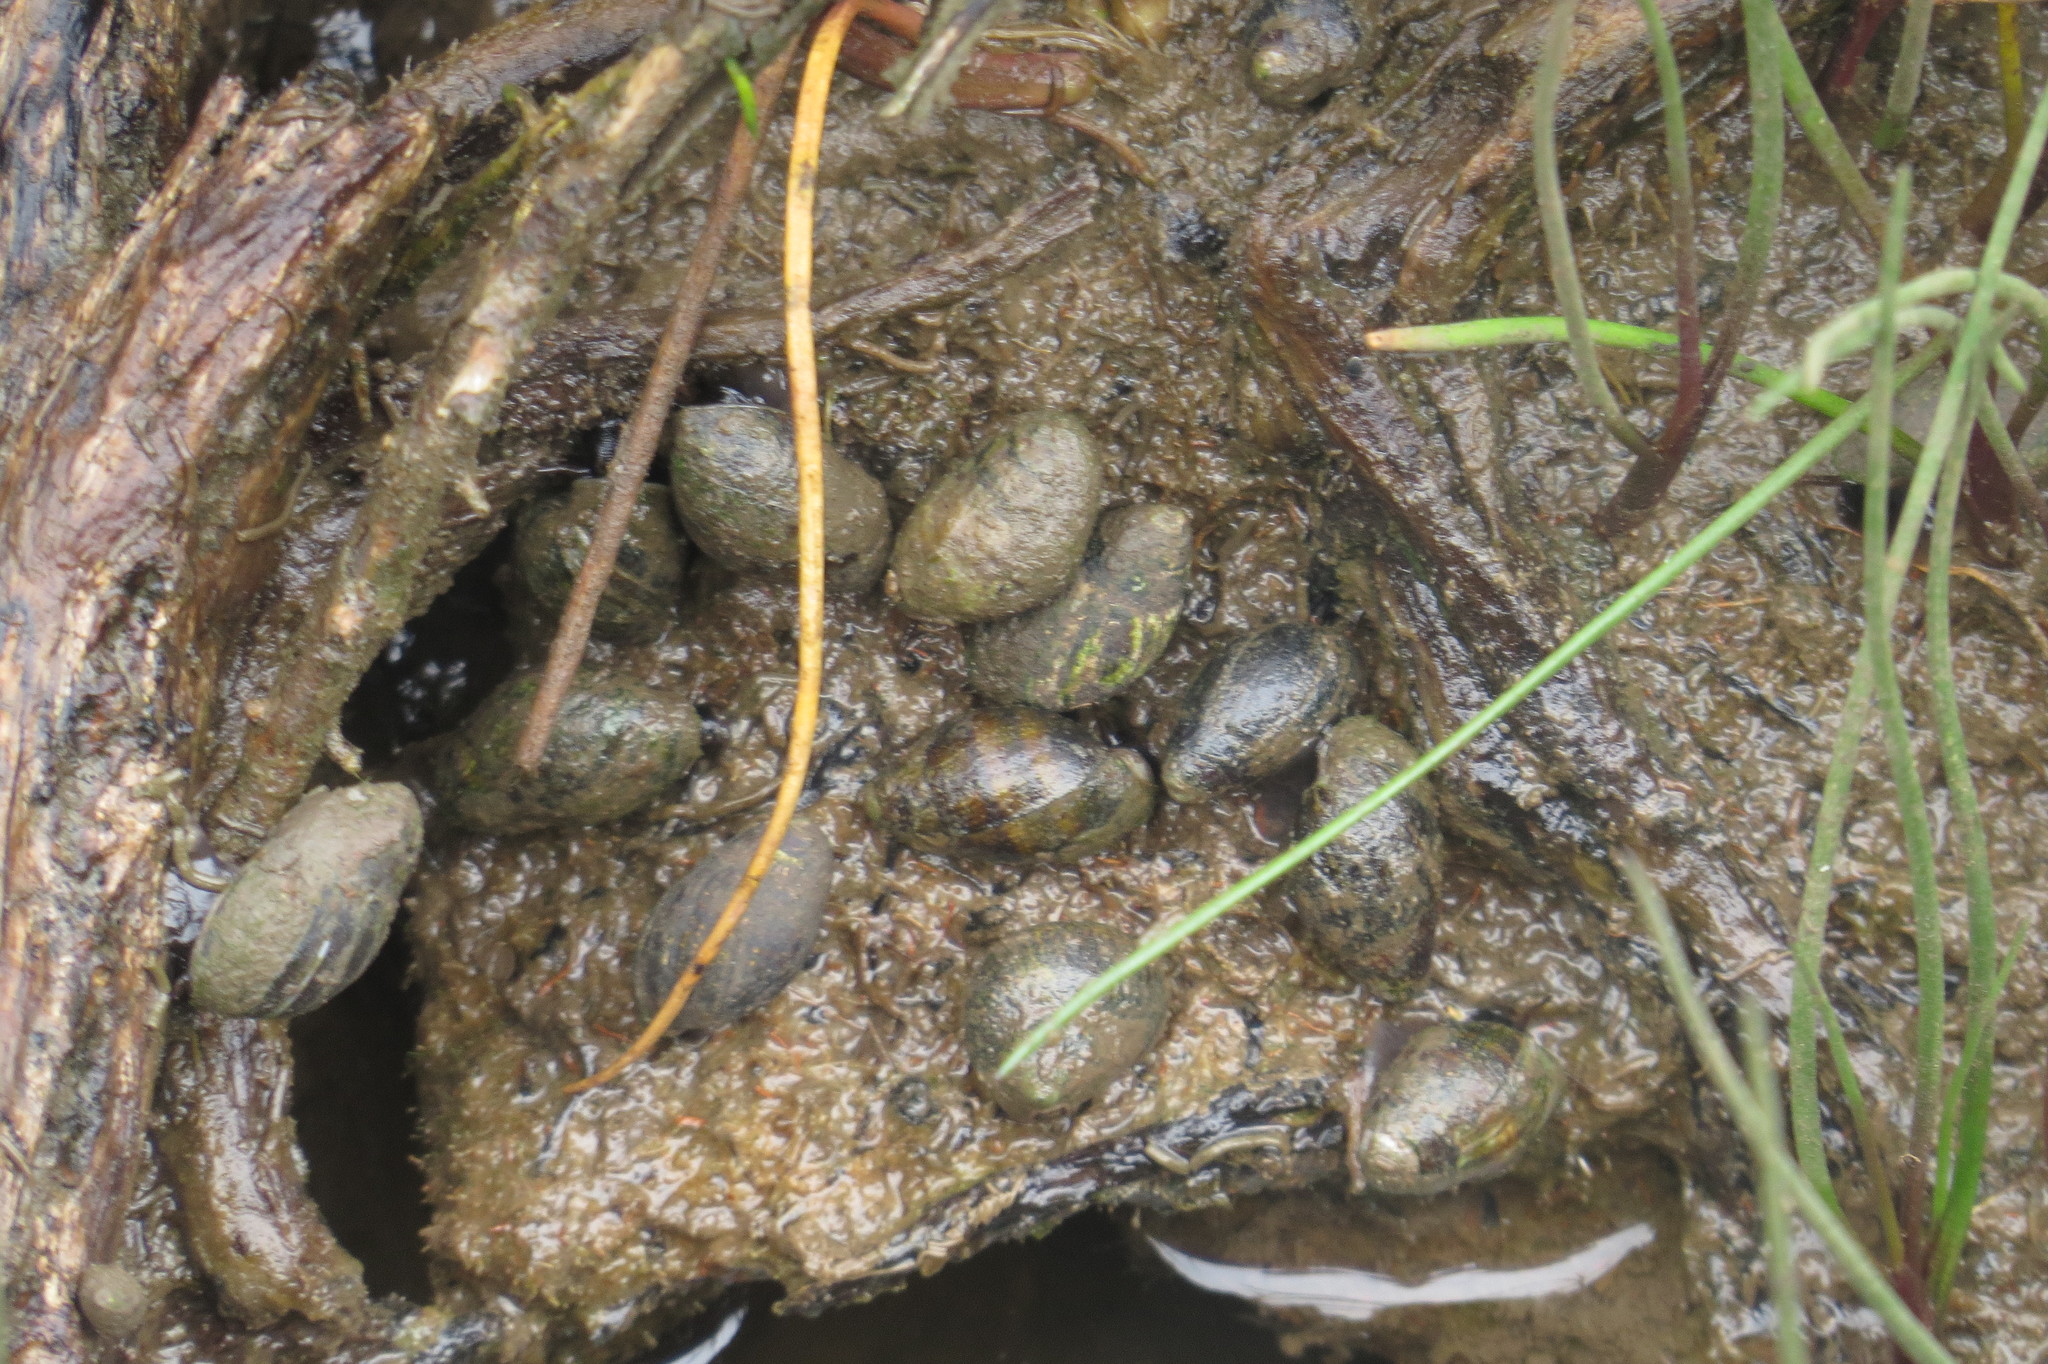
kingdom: Animalia
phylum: Mollusca
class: Gastropoda
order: Ellobiida
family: Ellobiidae
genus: Ophicardelus
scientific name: Ophicardelus ornatus
